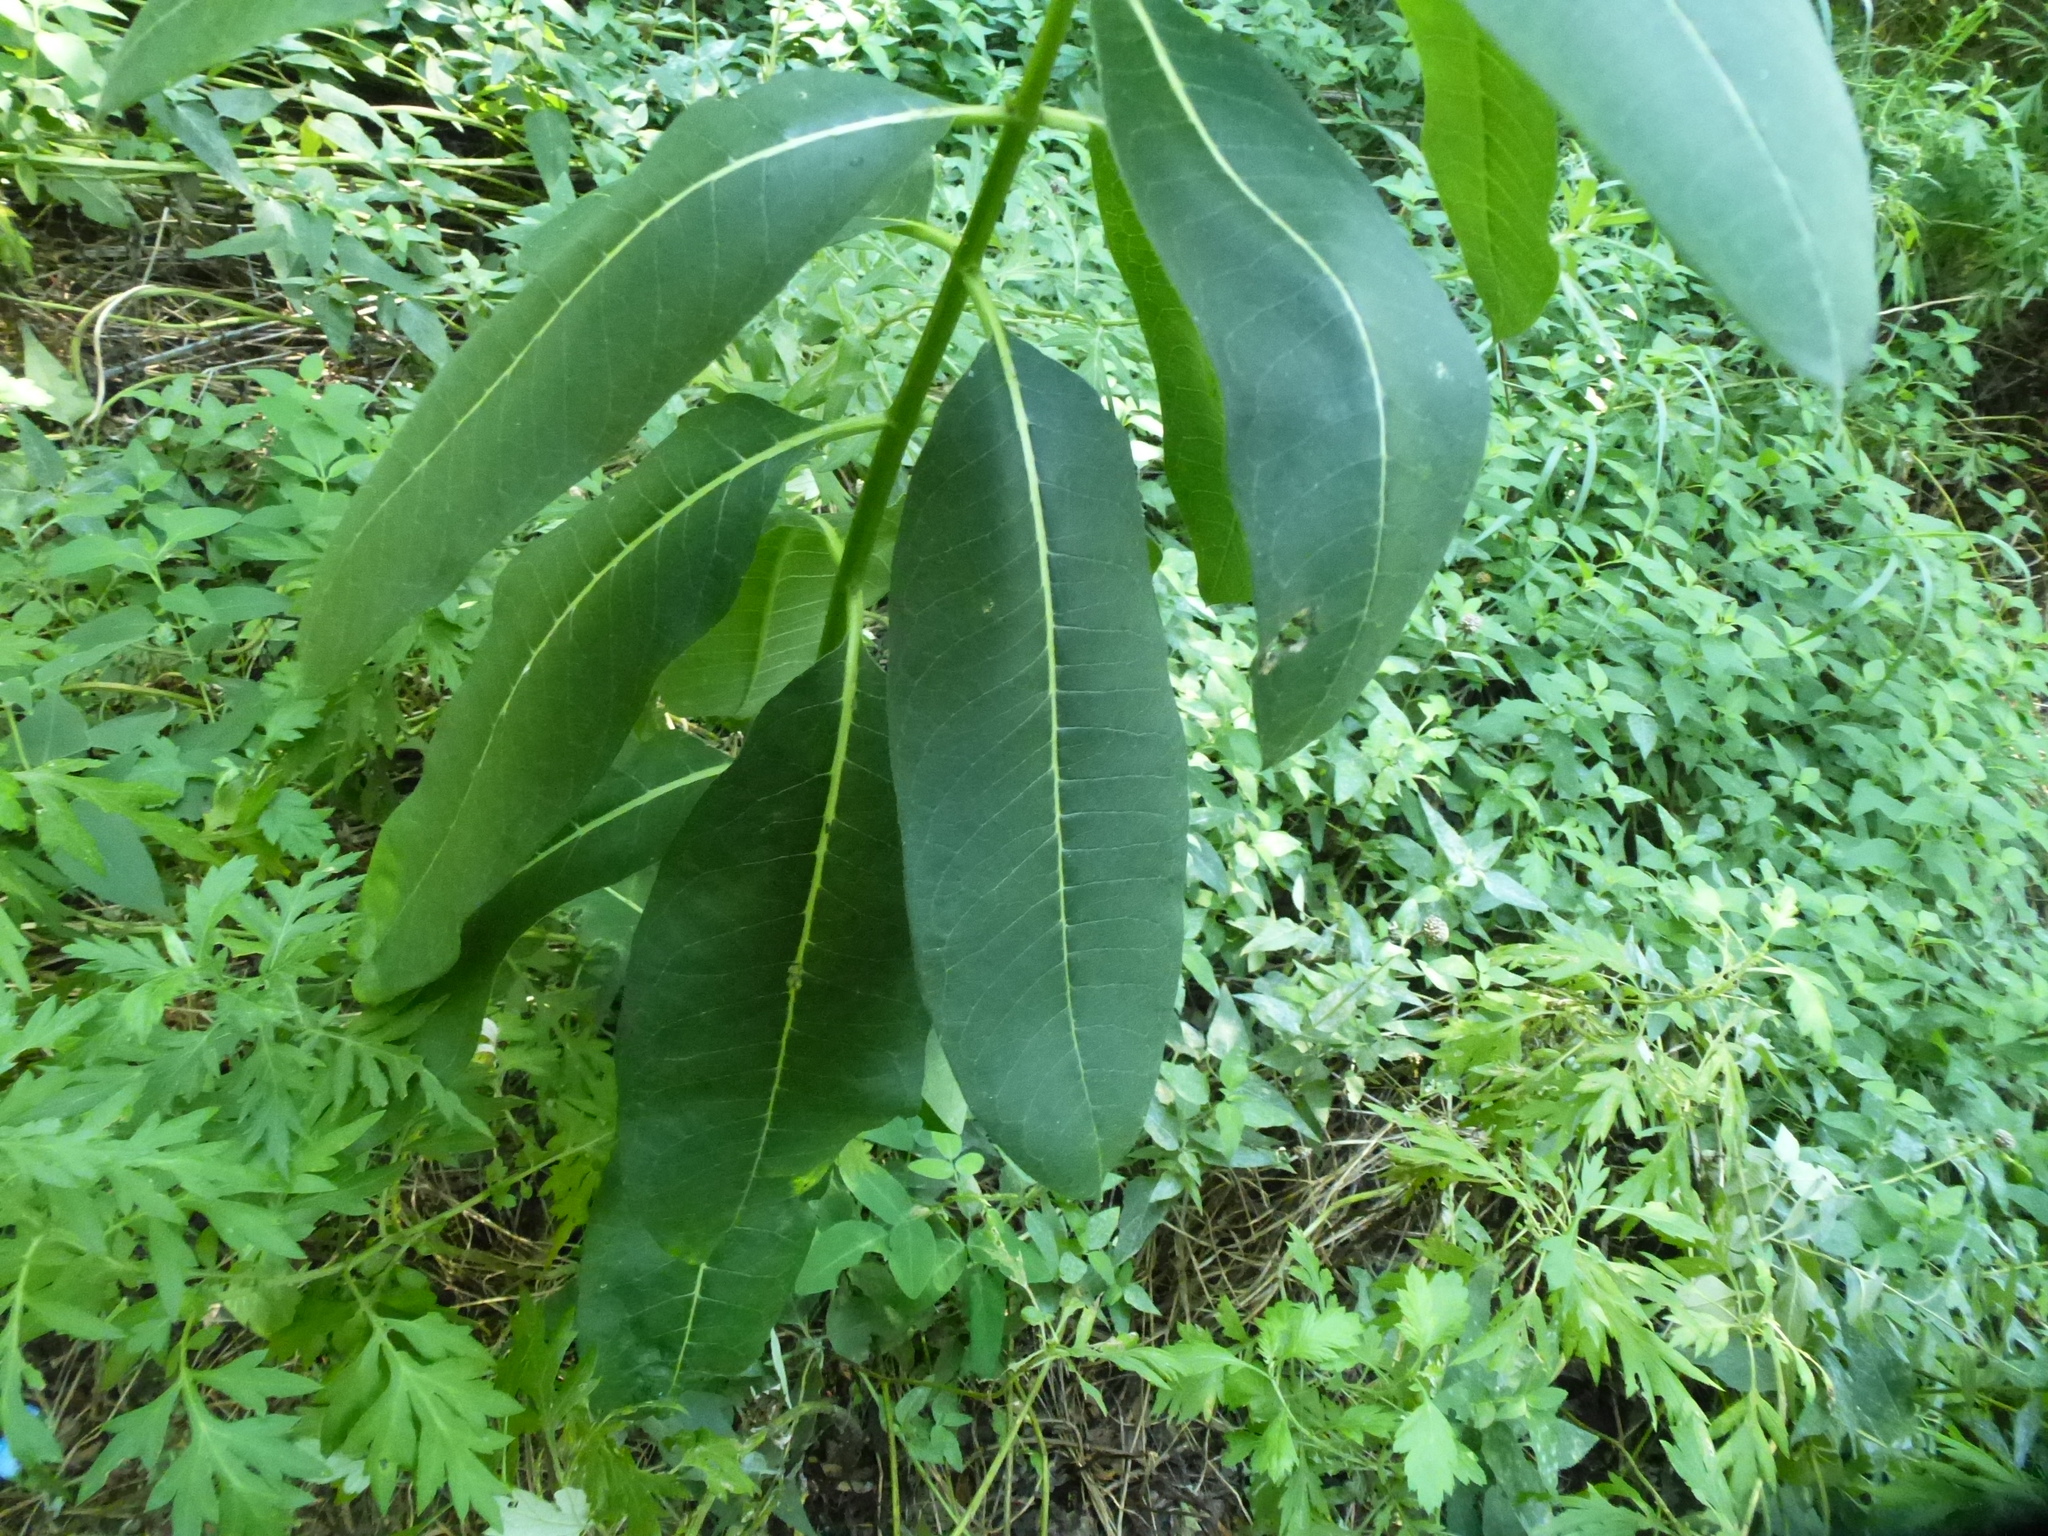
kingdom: Plantae
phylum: Tracheophyta
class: Magnoliopsida
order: Gentianales
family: Apocynaceae
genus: Asclepias
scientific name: Asclepias syriaca
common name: Common milkweed
